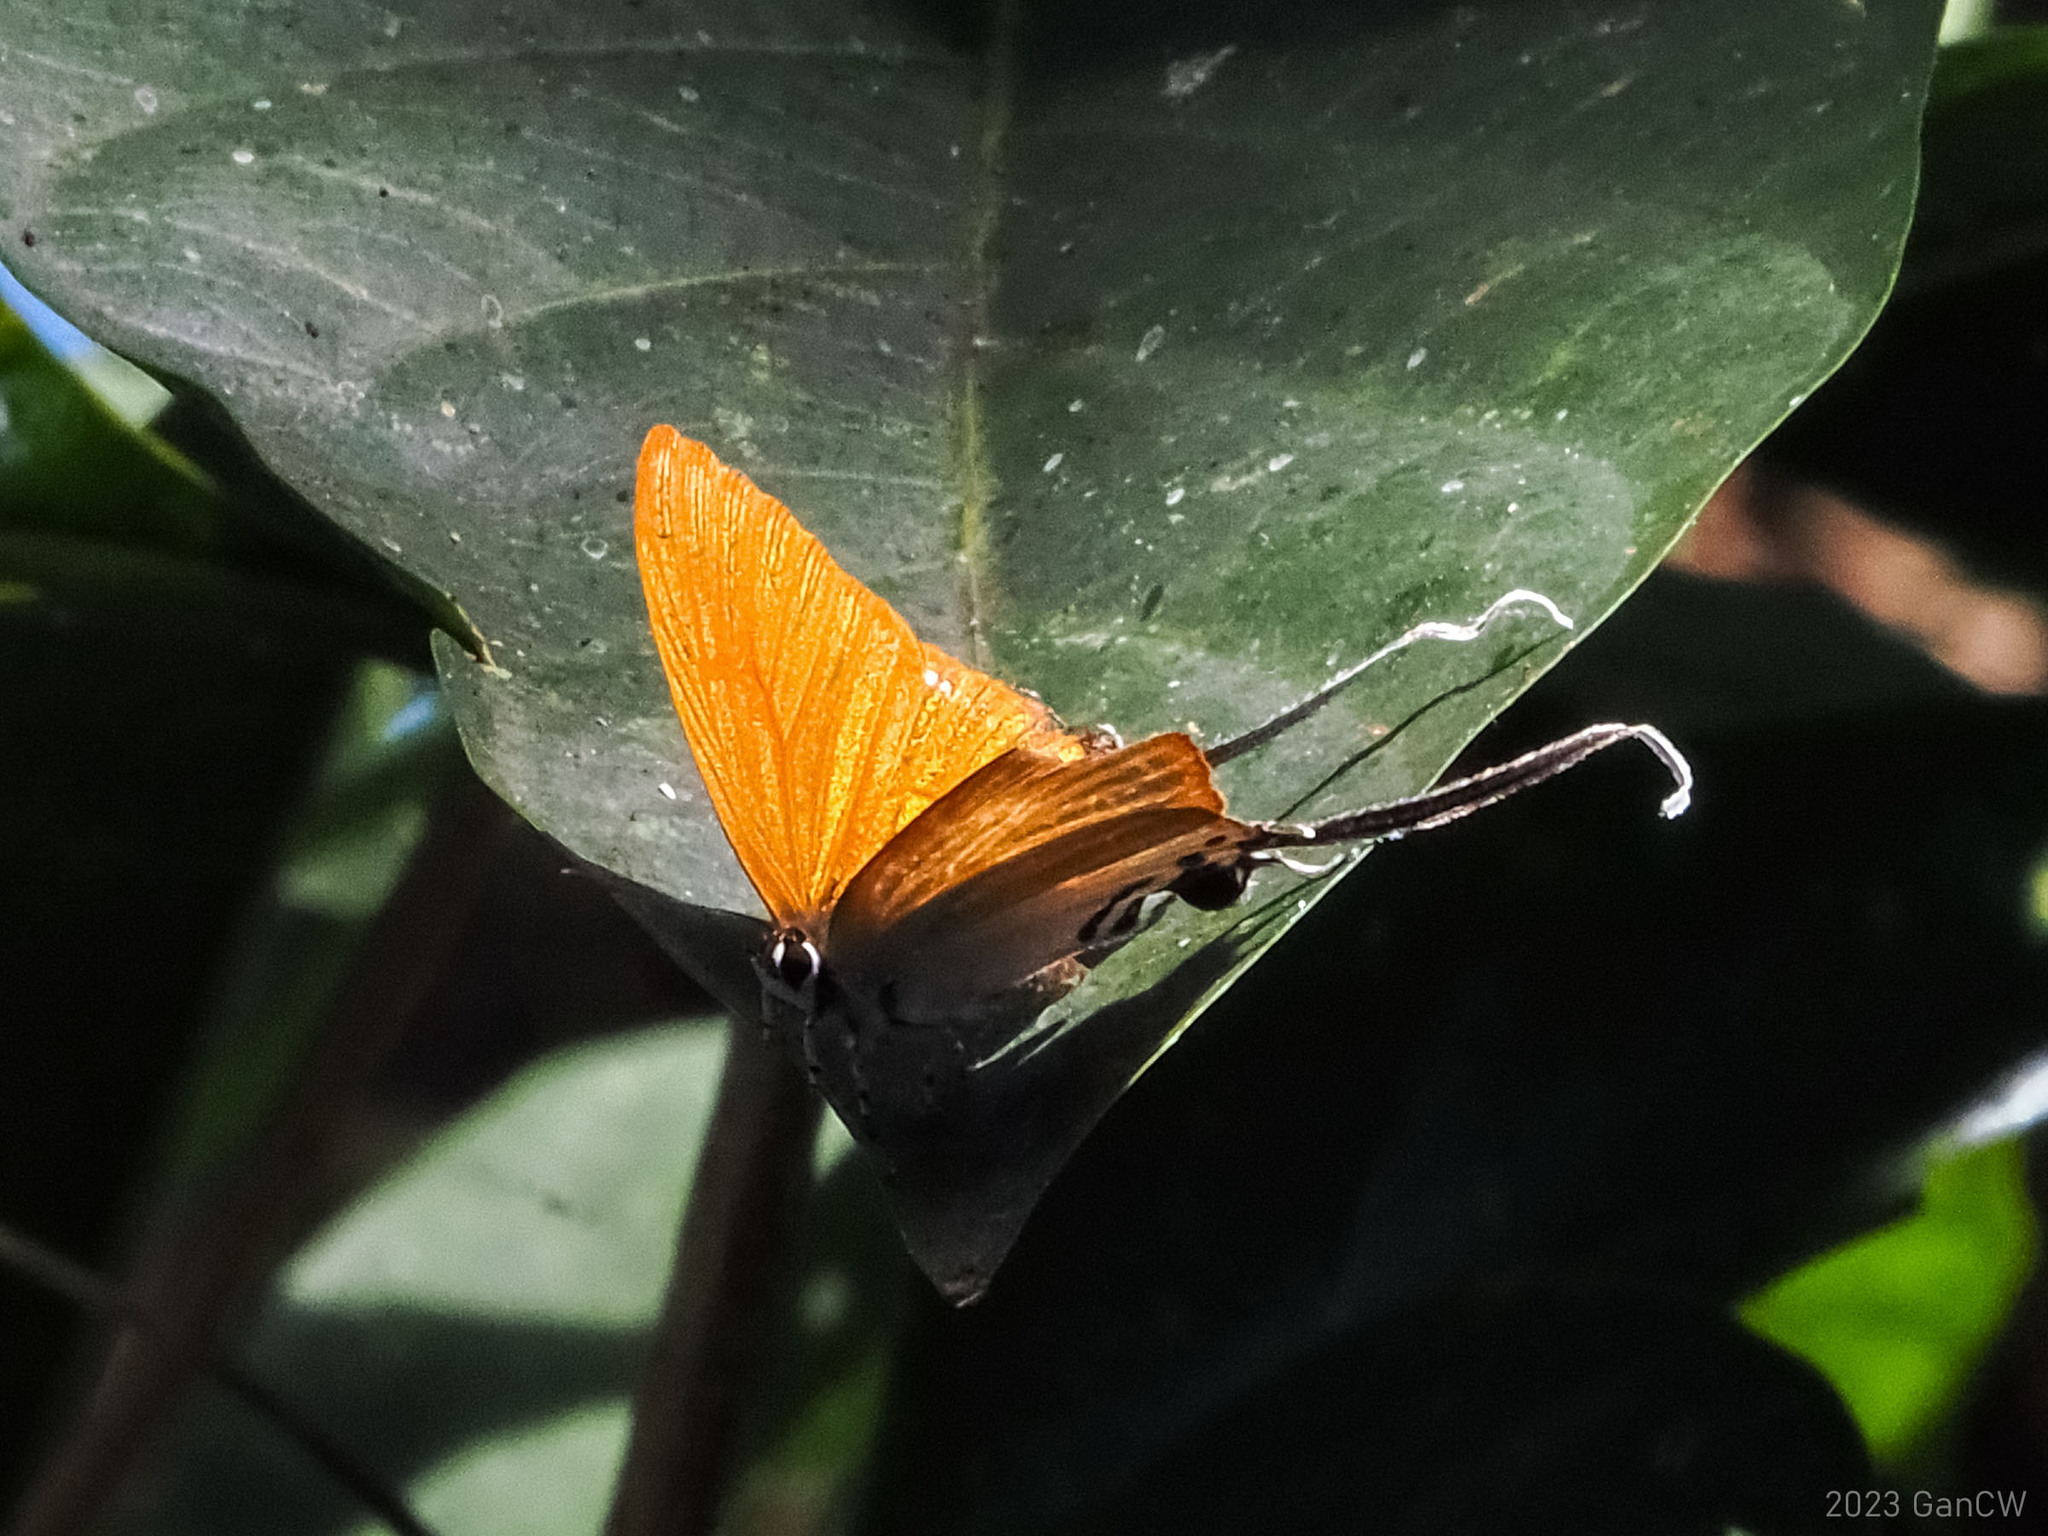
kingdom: Animalia
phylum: Arthropoda
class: Insecta
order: Lepidoptera
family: Lycaenidae
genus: Cheritra
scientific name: Cheritra orpheus
